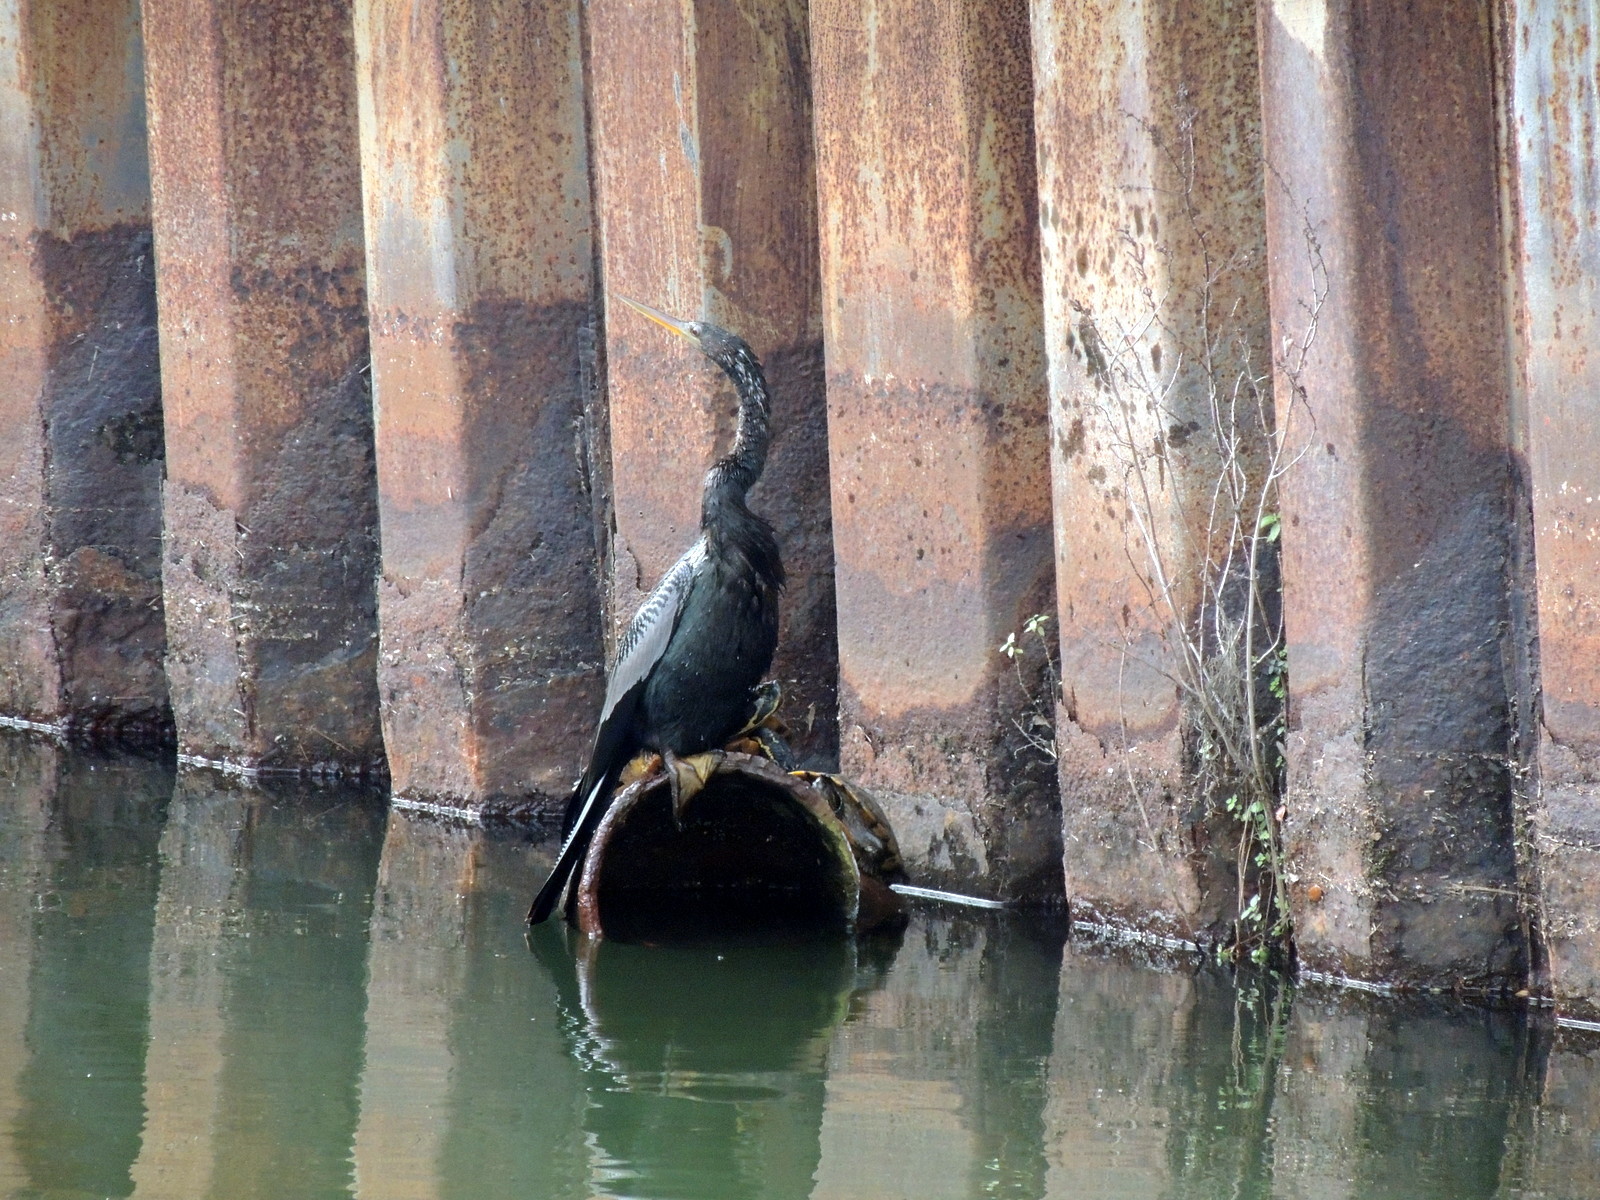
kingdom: Animalia
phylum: Chordata
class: Aves
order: Suliformes
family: Anhingidae
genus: Anhinga
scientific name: Anhinga anhinga
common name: Anhinga
